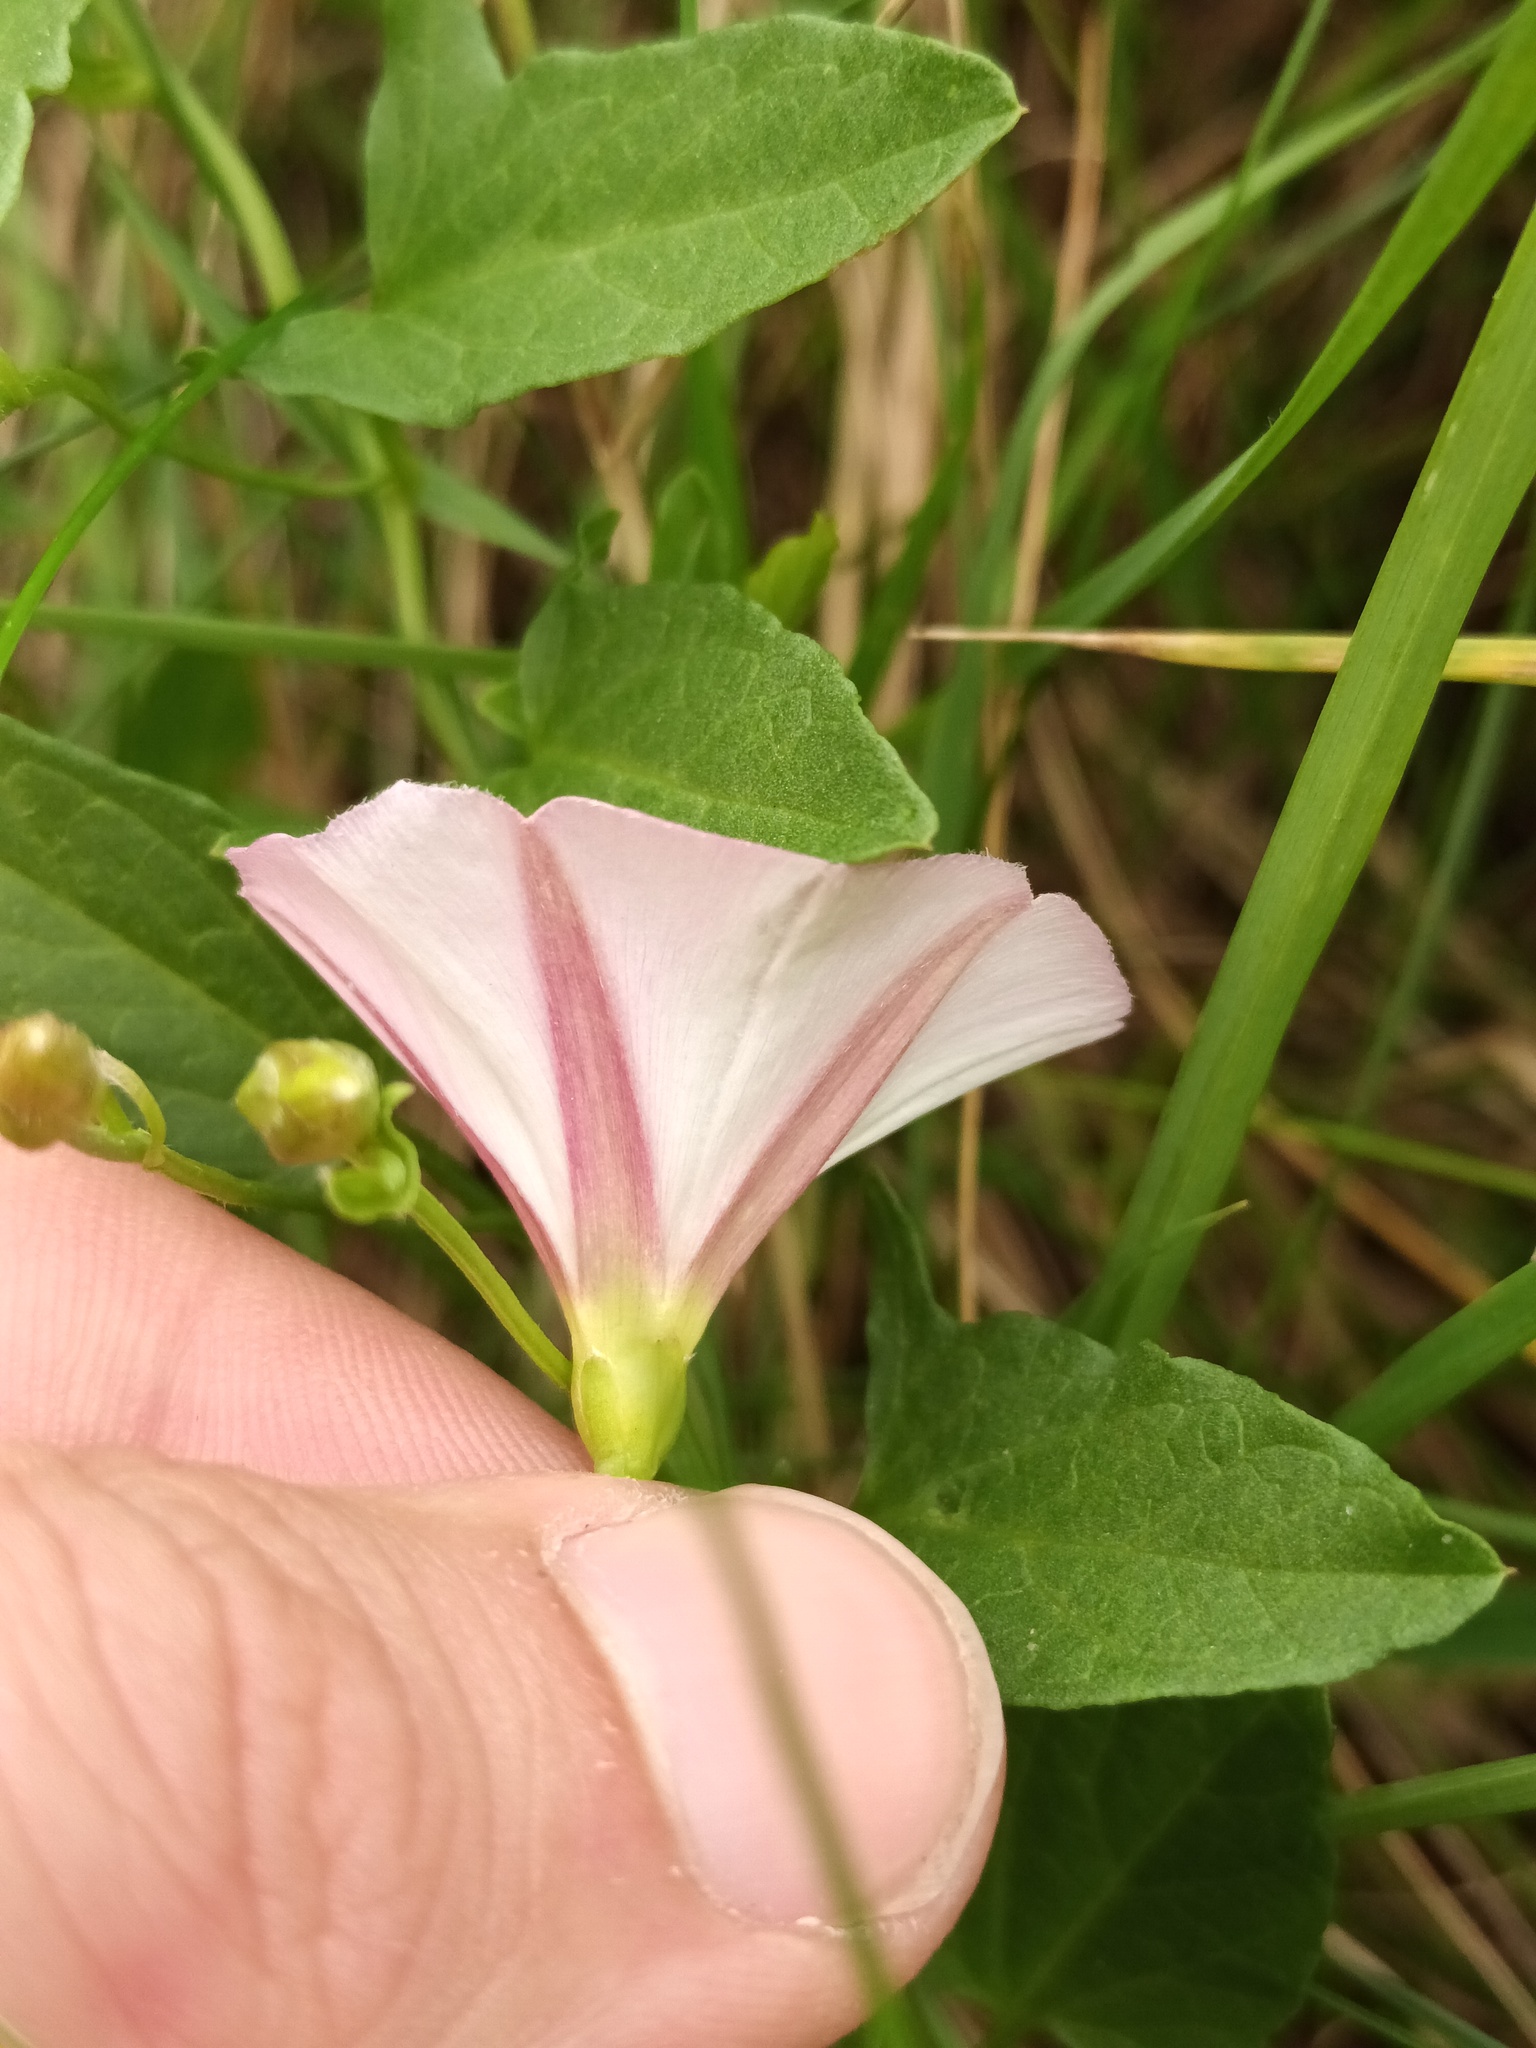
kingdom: Plantae
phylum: Tracheophyta
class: Magnoliopsida
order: Solanales
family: Convolvulaceae
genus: Convolvulus
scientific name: Convolvulus arvensis
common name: Field bindweed
